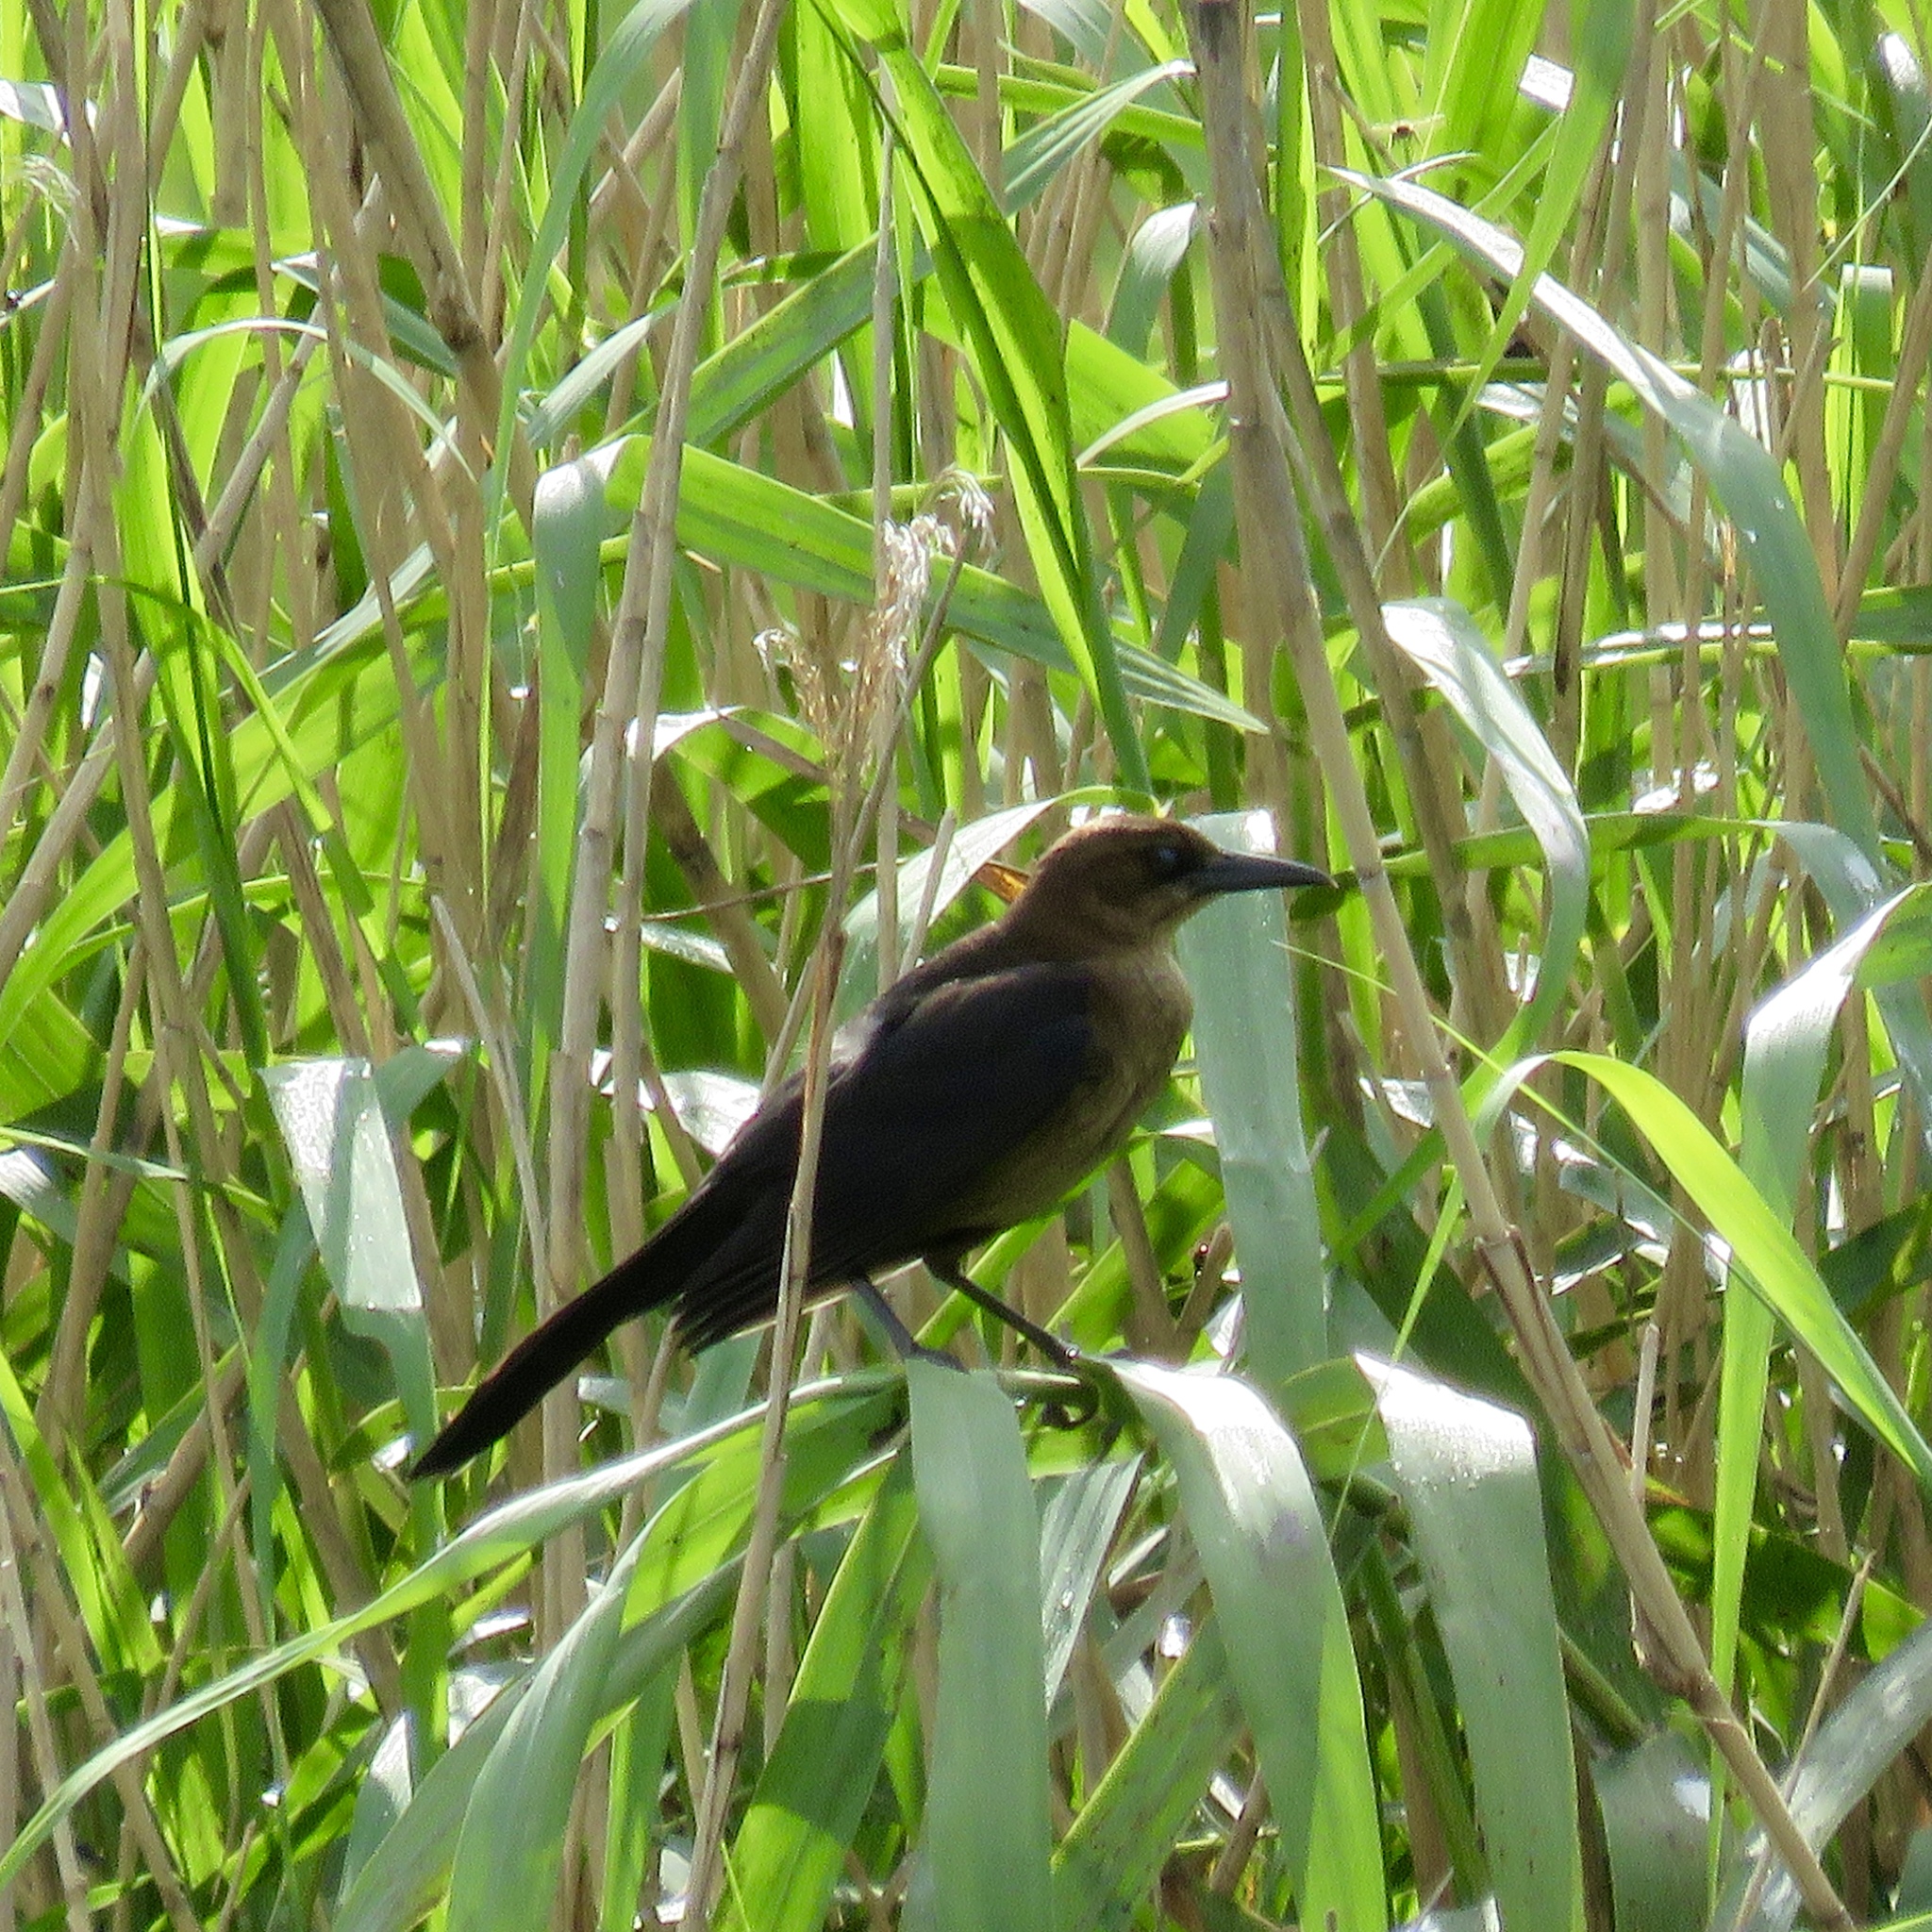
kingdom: Animalia
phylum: Chordata
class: Aves
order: Passeriformes
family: Icteridae
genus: Quiscalus
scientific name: Quiscalus major
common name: Boat-tailed grackle
